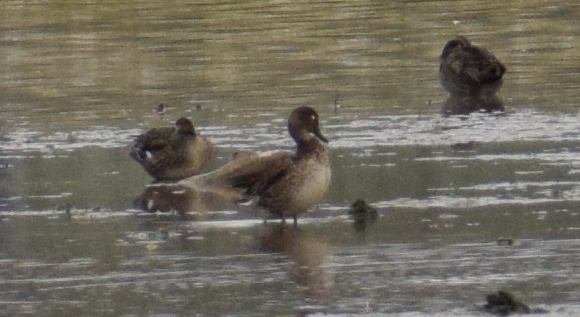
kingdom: Animalia
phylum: Chordata
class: Aves
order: Anseriformes
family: Anatidae
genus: Anas
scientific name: Anas crecca
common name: Eurasian teal
